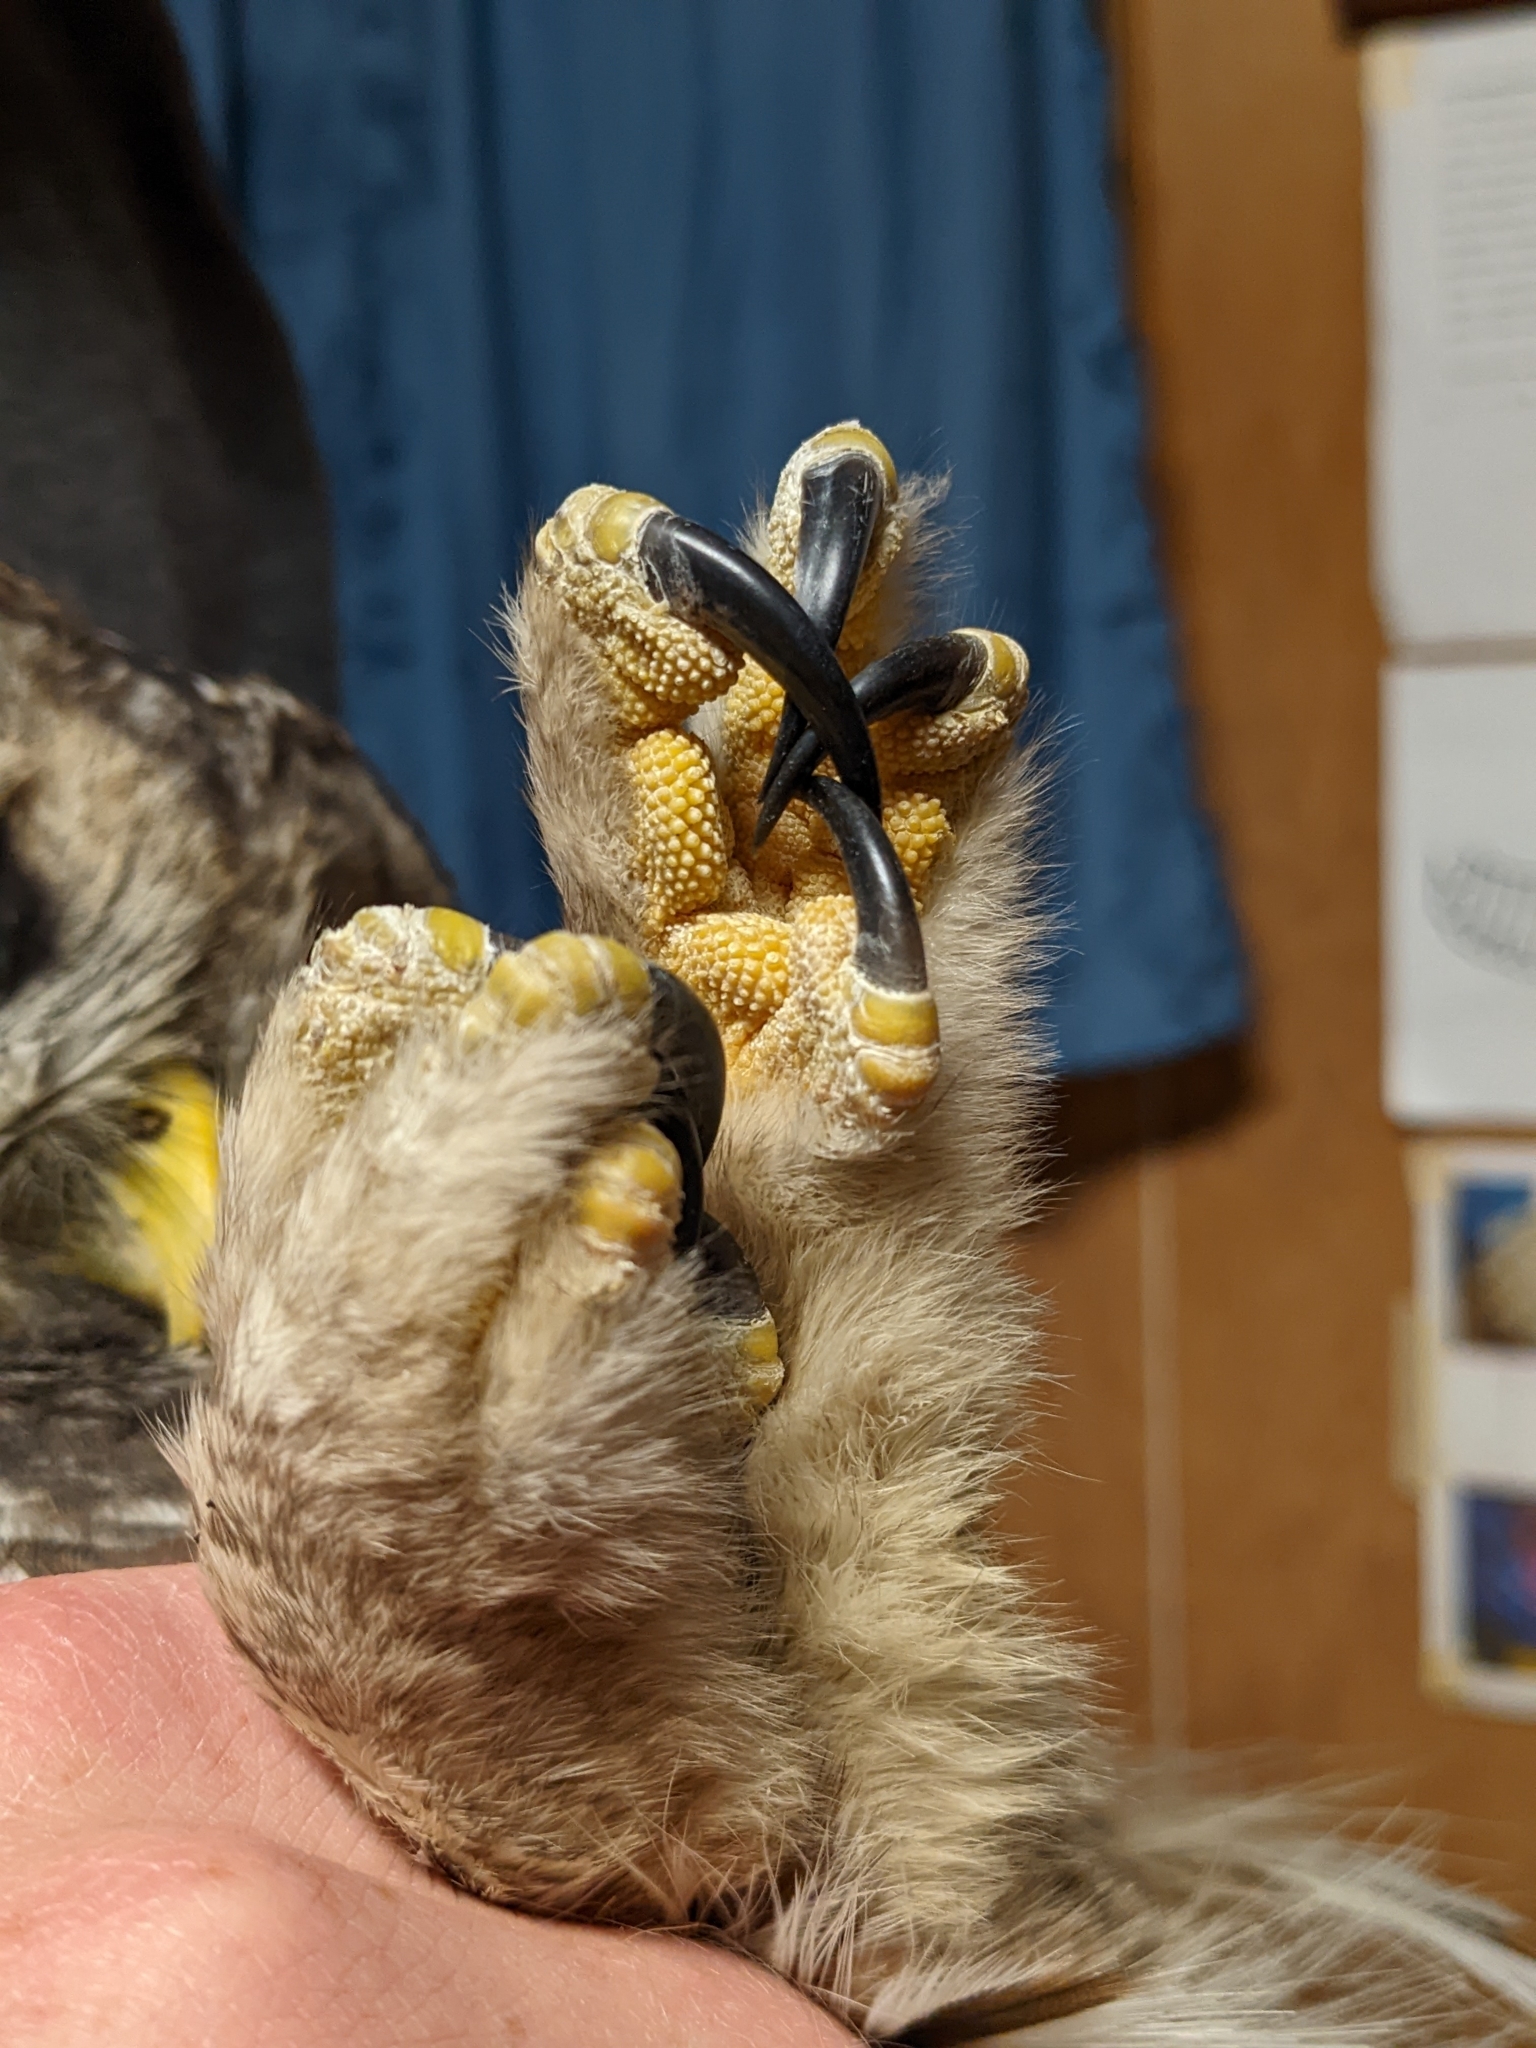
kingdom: Animalia
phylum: Chordata
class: Aves
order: Strigiformes
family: Strigidae
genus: Strix
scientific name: Strix varia
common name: Barred owl
